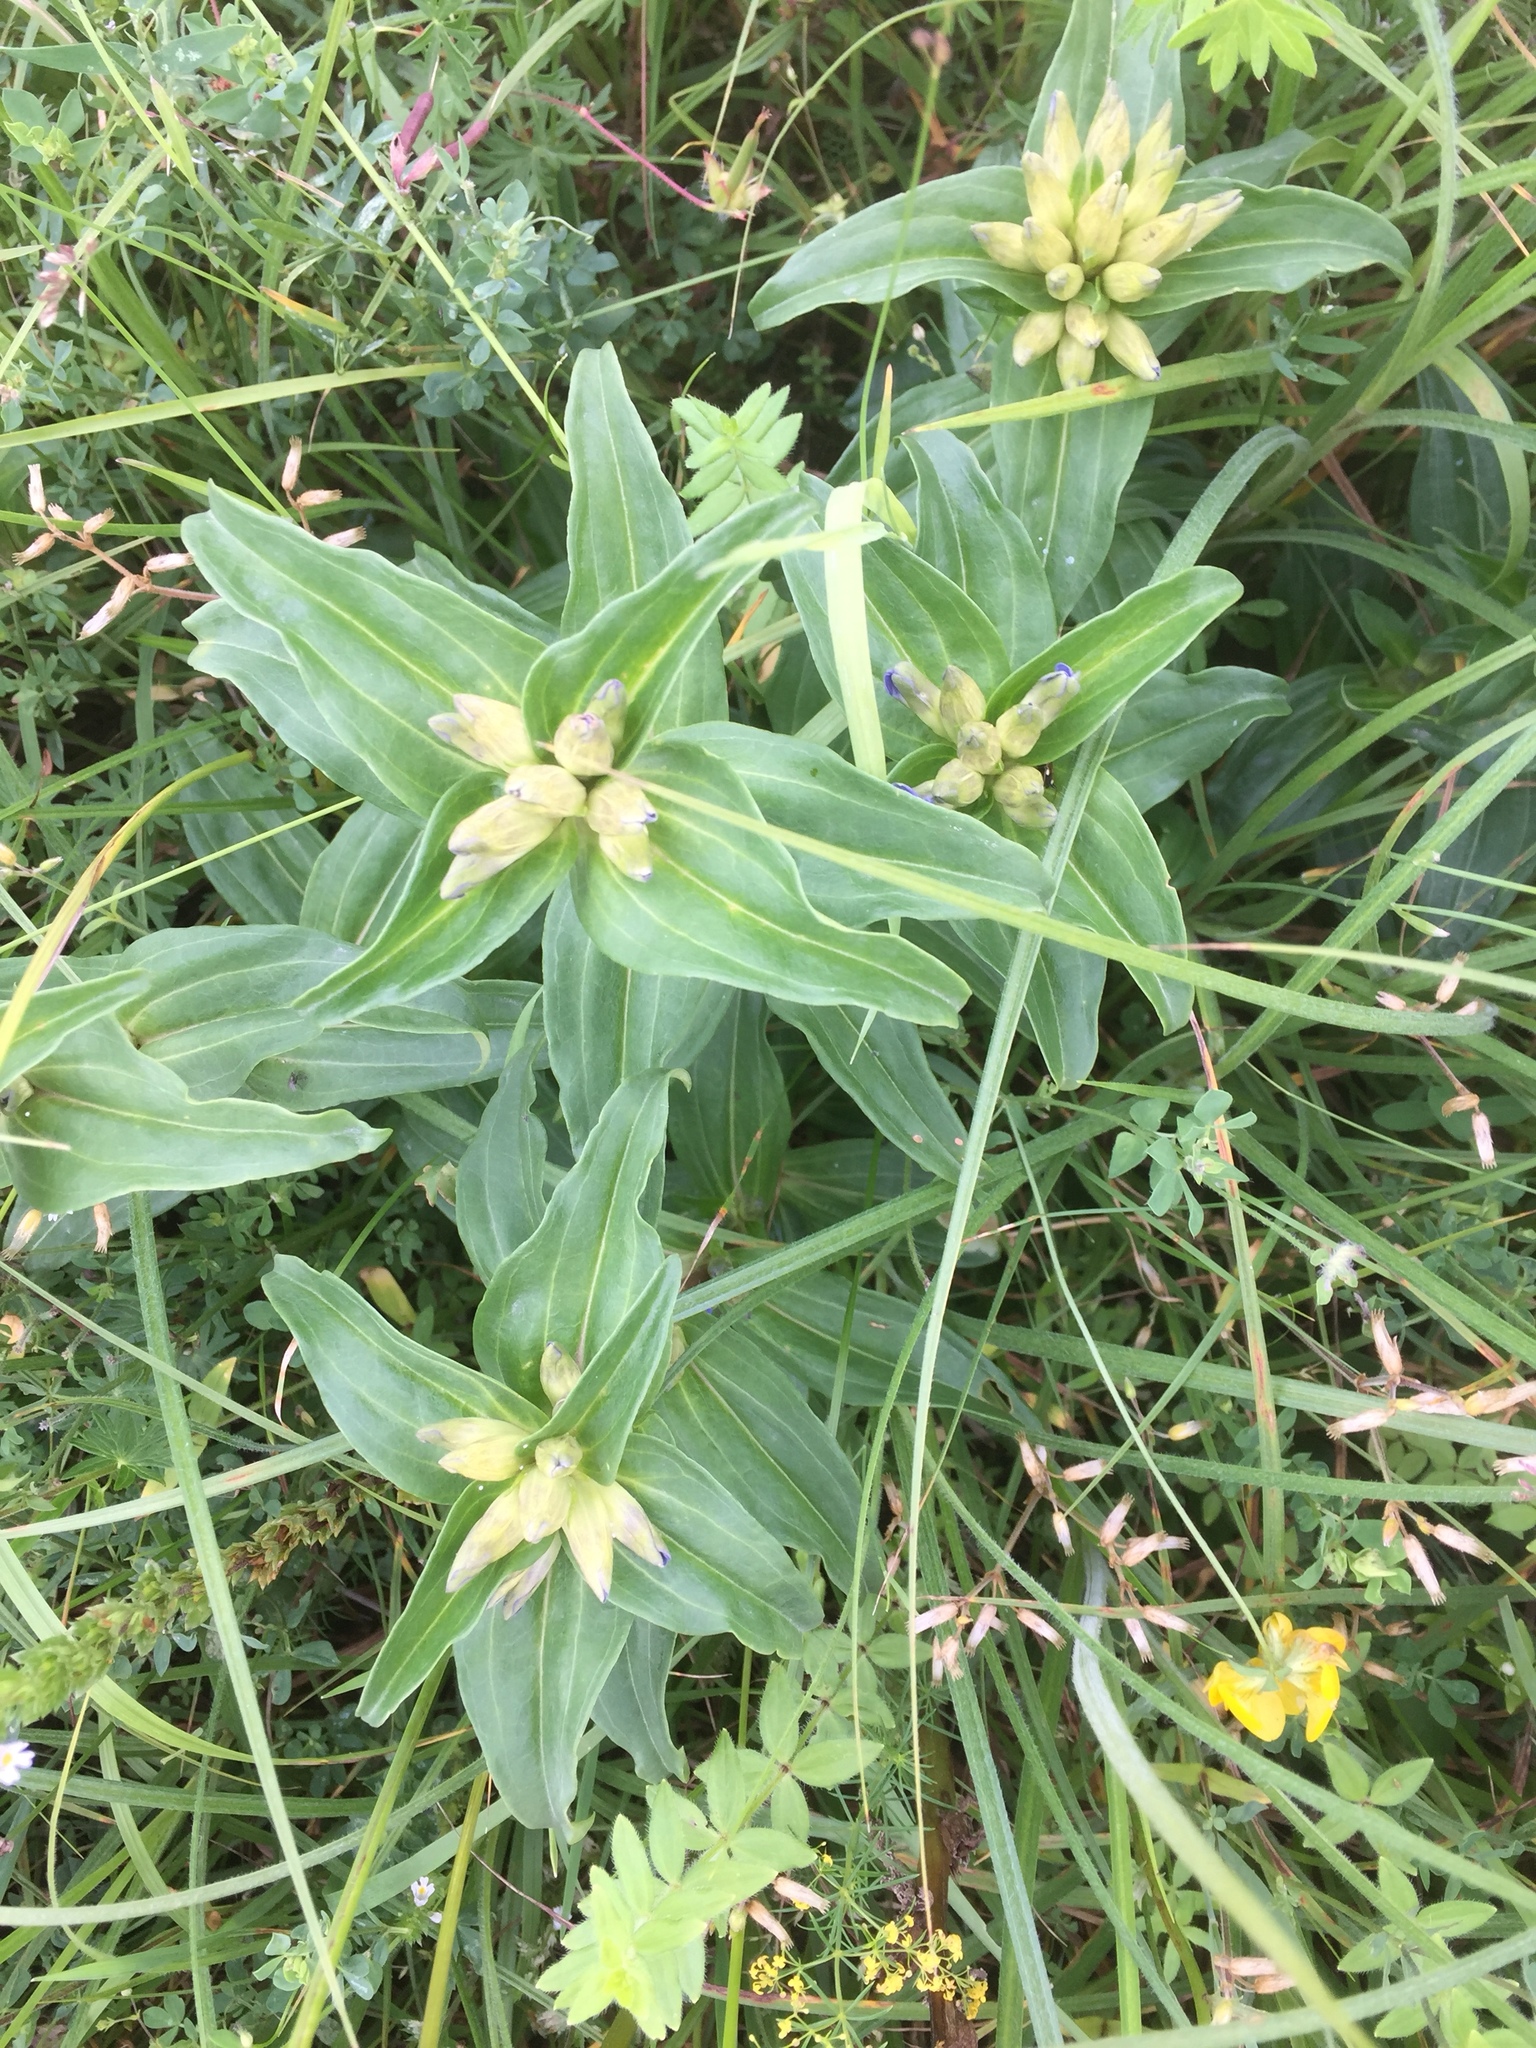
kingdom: Plantae
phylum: Tracheophyta
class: Magnoliopsida
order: Gentianales
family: Gentianaceae
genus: Gentiana
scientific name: Gentiana cruciata
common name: Cross gentian
